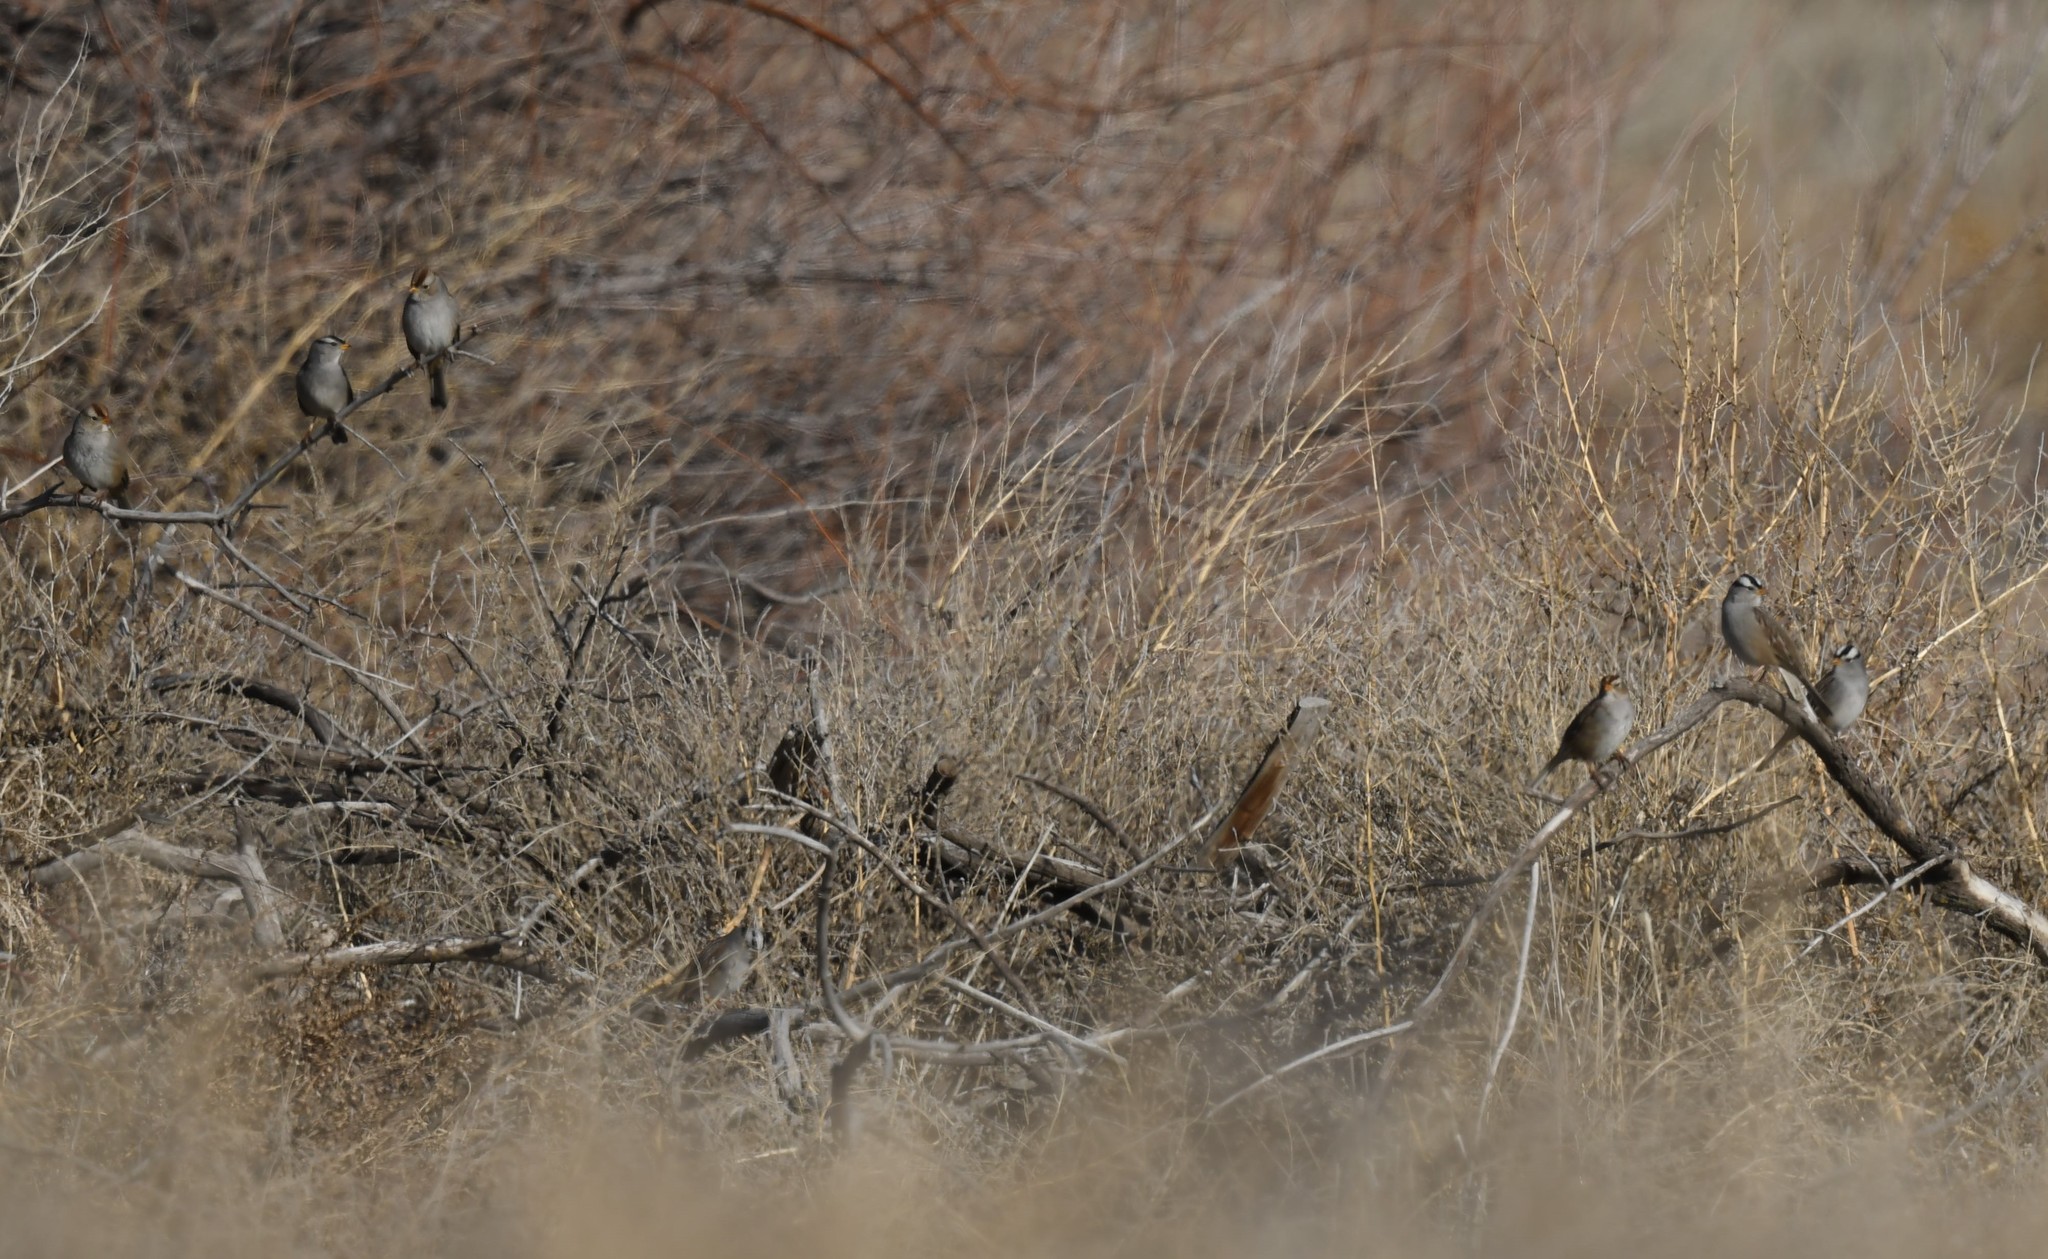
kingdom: Animalia
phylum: Chordata
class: Aves
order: Passeriformes
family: Passerellidae
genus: Zonotrichia
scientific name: Zonotrichia leucophrys
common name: White-crowned sparrow
